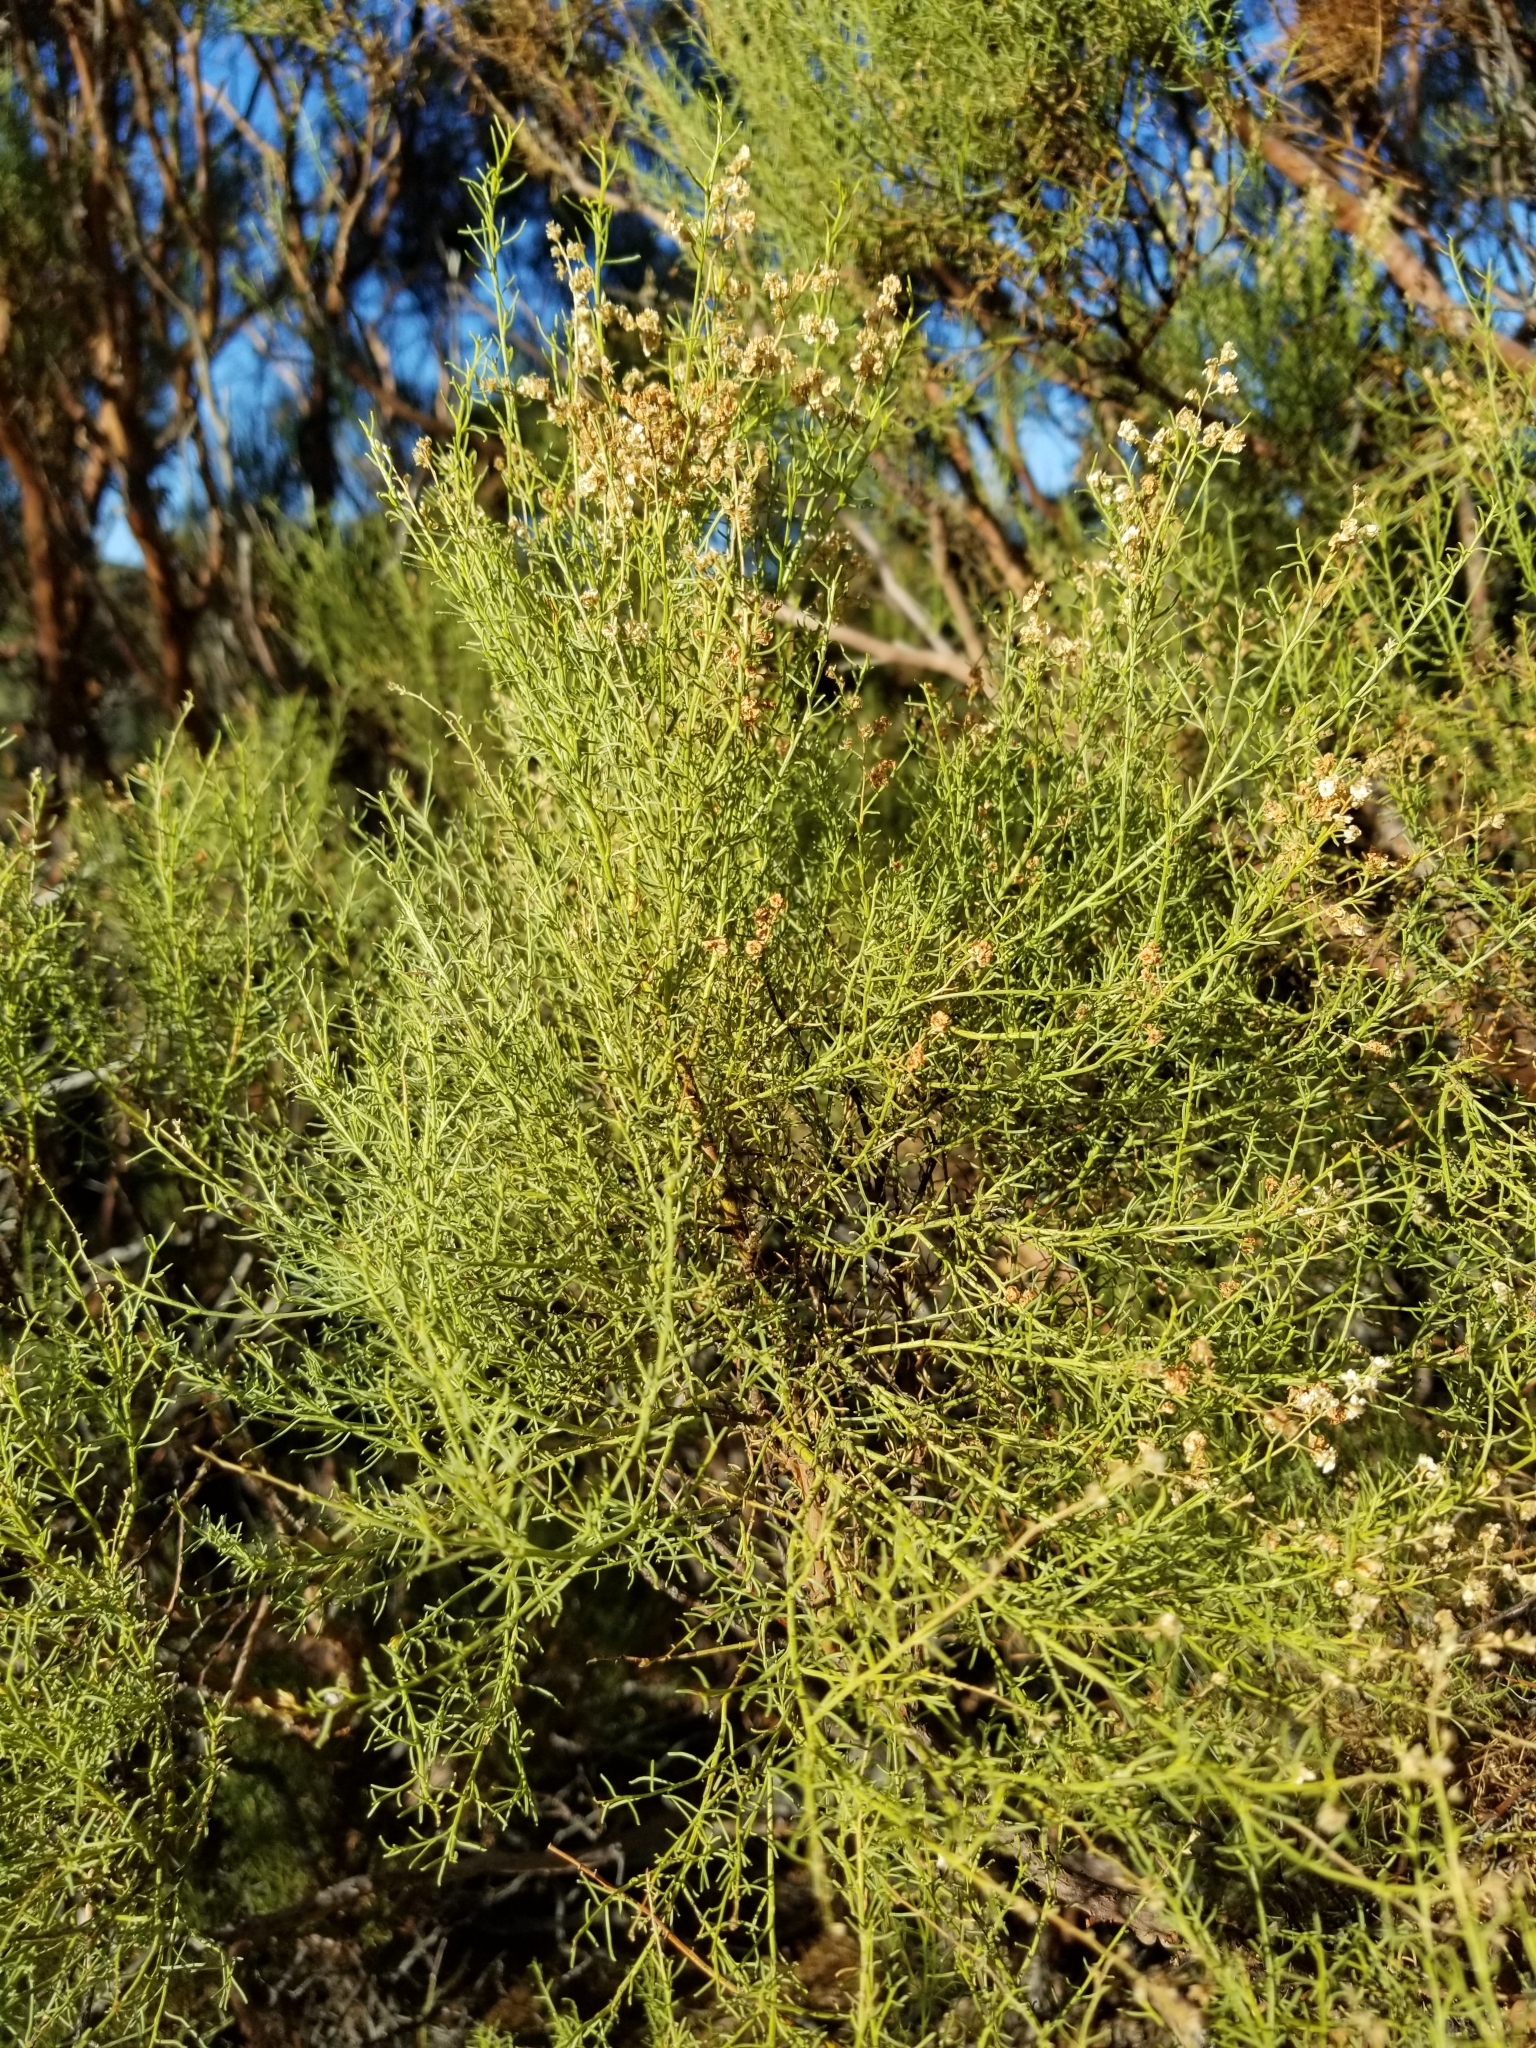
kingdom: Plantae
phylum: Tracheophyta
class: Magnoliopsida
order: Rosales
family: Rosaceae
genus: Adenostoma
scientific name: Adenostoma sparsifolium
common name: Red shank
